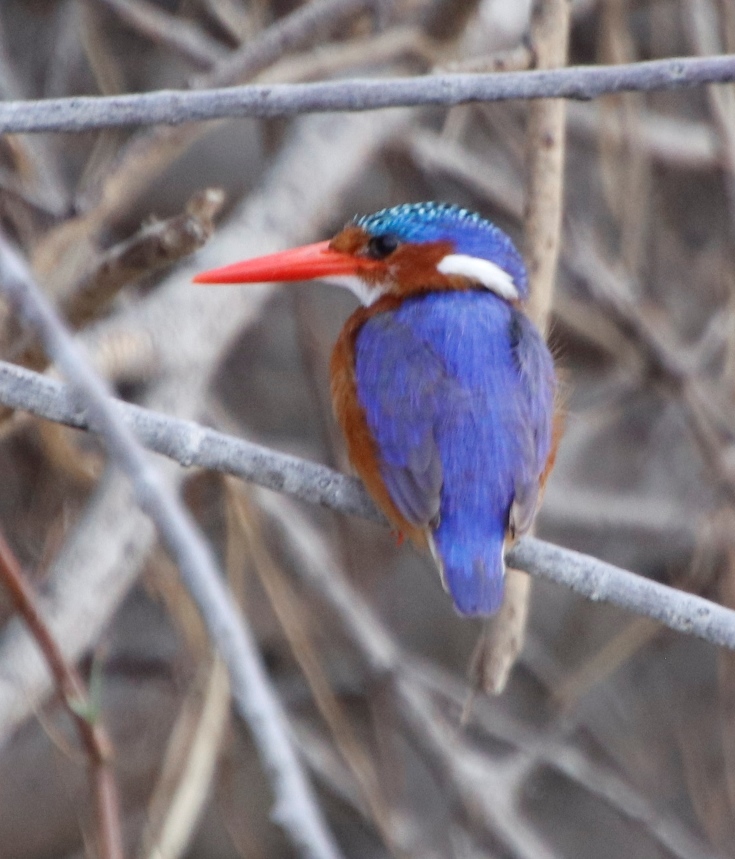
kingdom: Animalia
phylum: Chordata
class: Aves
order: Coraciiformes
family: Alcedinidae
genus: Corythornis
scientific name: Corythornis cristatus
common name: Malachite kingfisher
